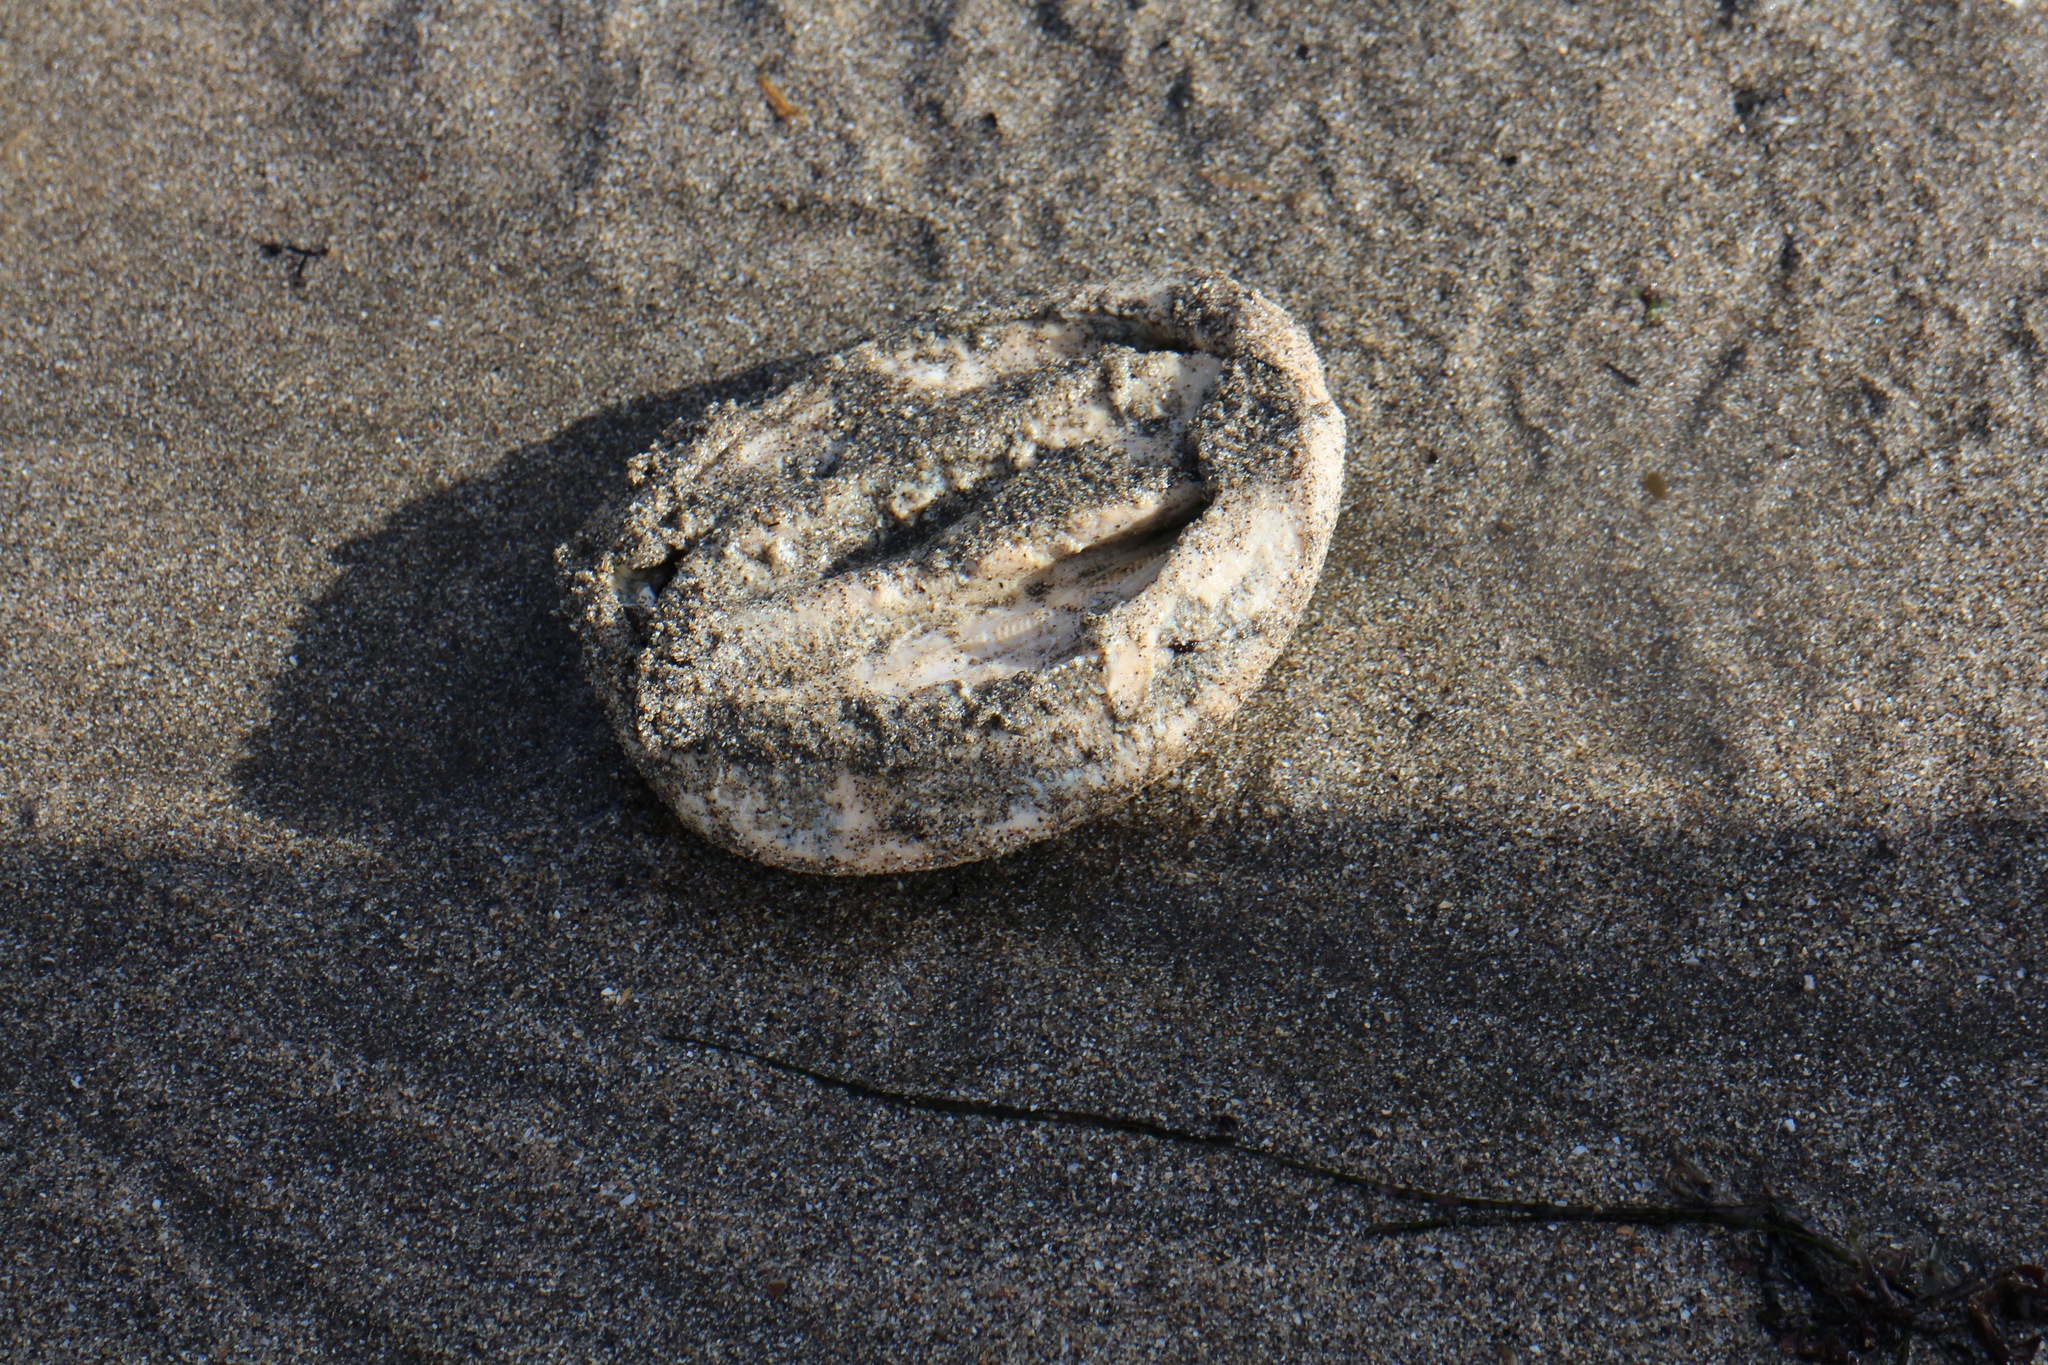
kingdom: Animalia
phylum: Mollusca
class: Polyplacophora
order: Chitonida
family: Acanthochitonidae
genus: Cryptochiton
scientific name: Cryptochiton stelleri
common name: Giant pacific chiton
